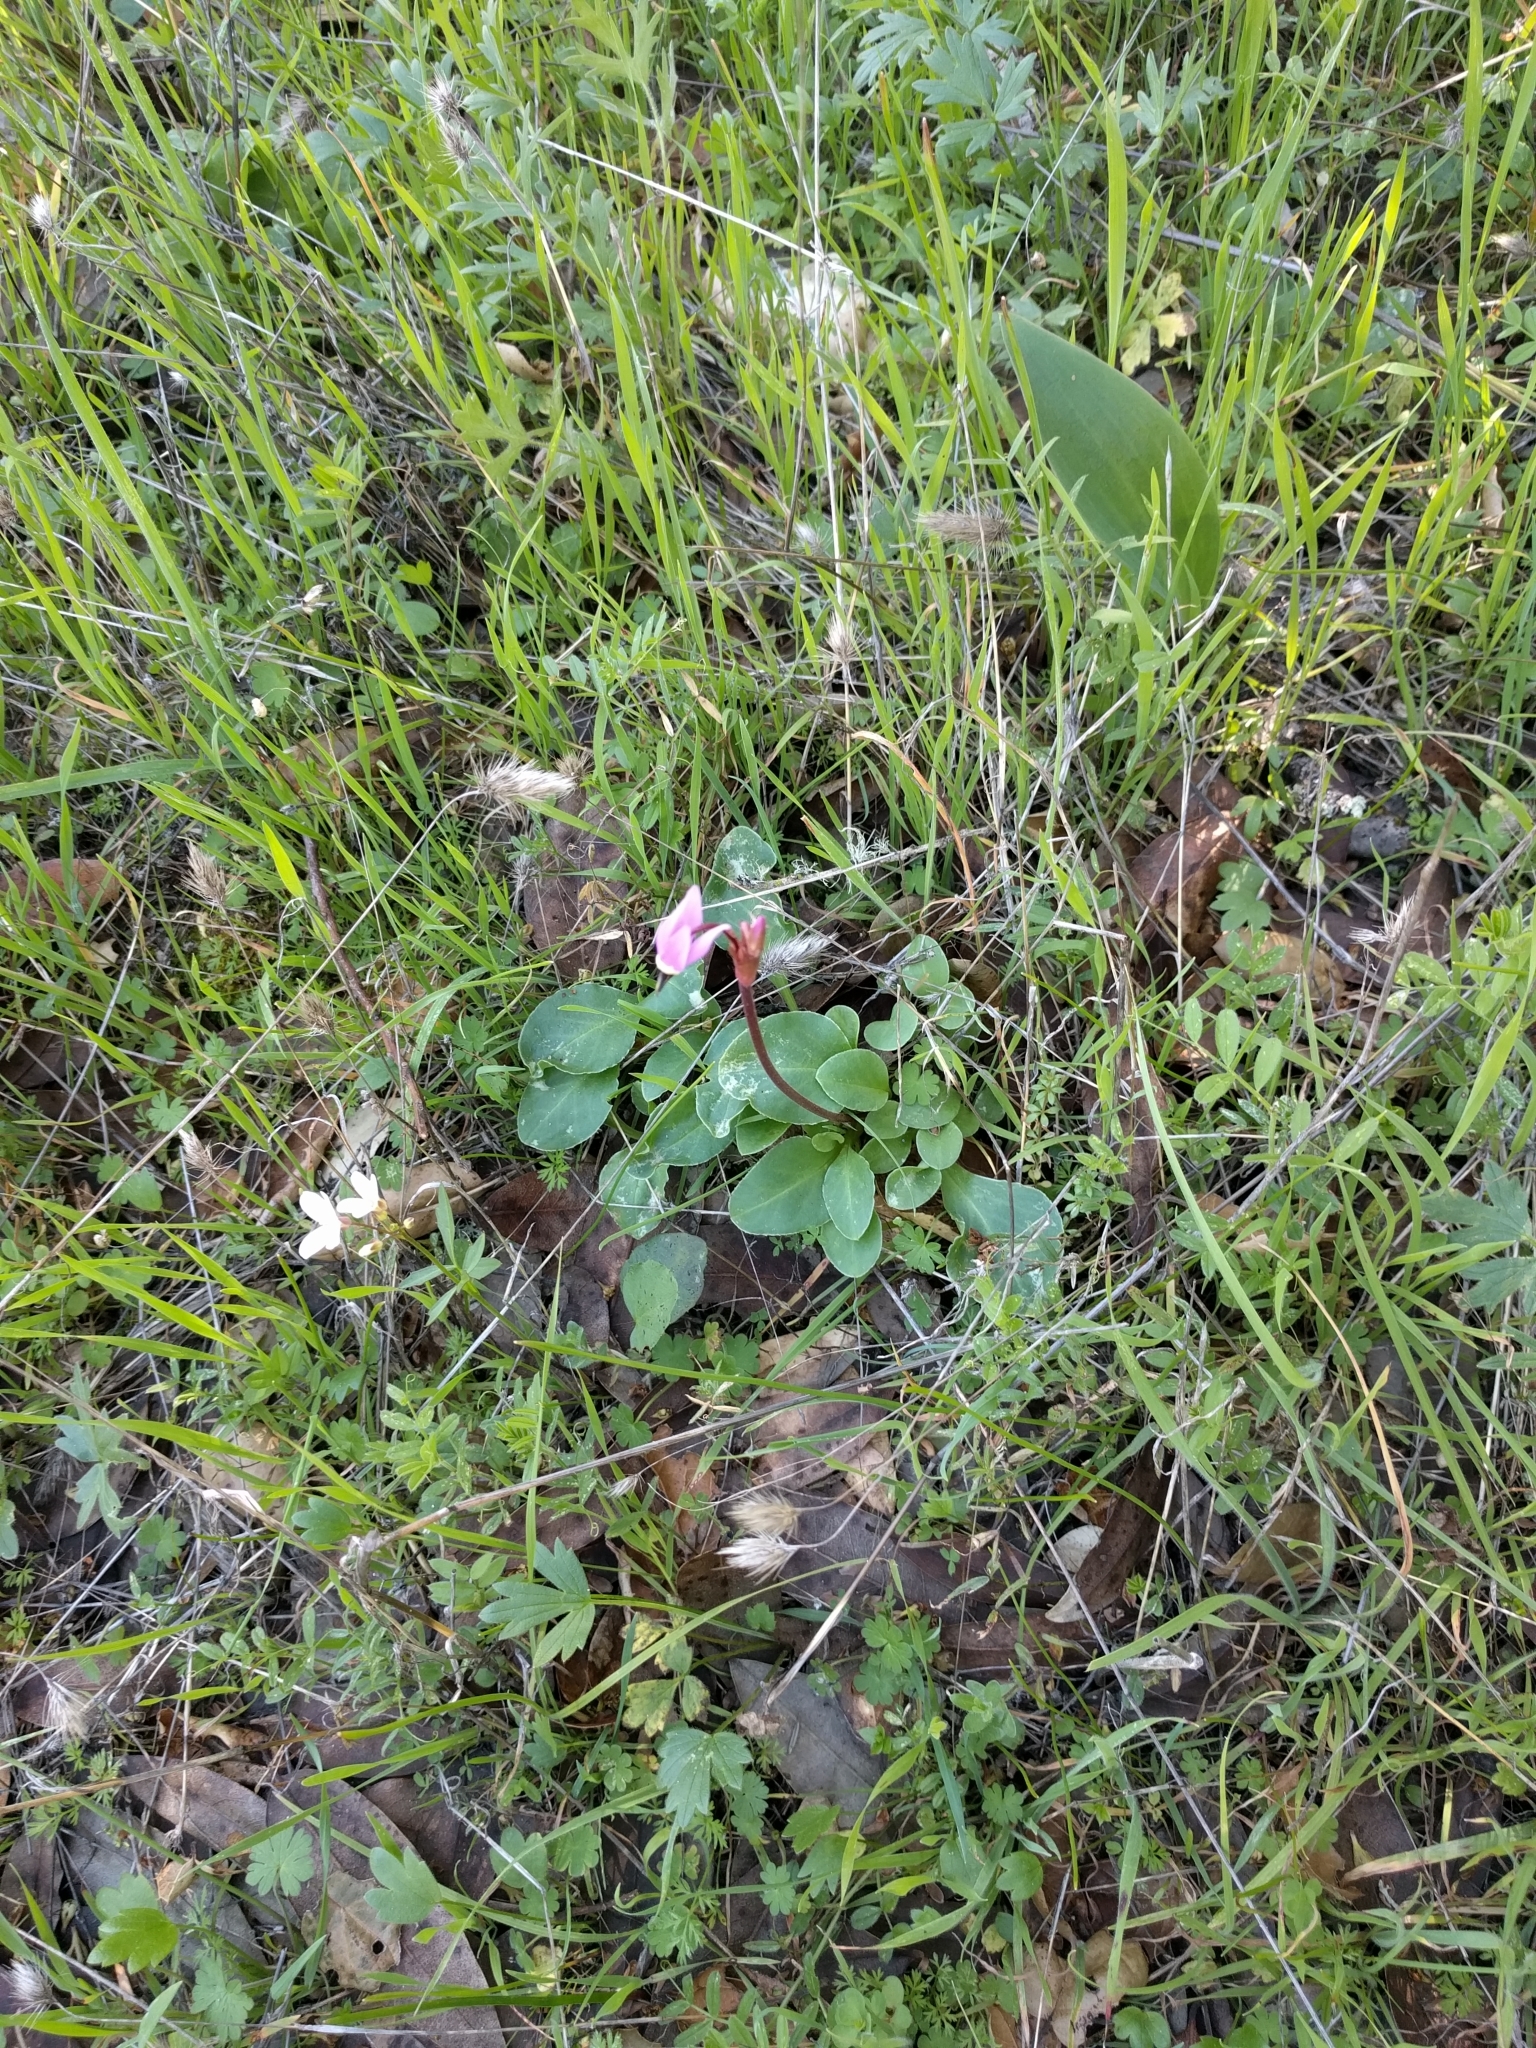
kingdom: Plantae
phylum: Tracheophyta
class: Magnoliopsida
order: Ericales
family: Primulaceae
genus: Dodecatheon
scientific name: Dodecatheon hendersonii
